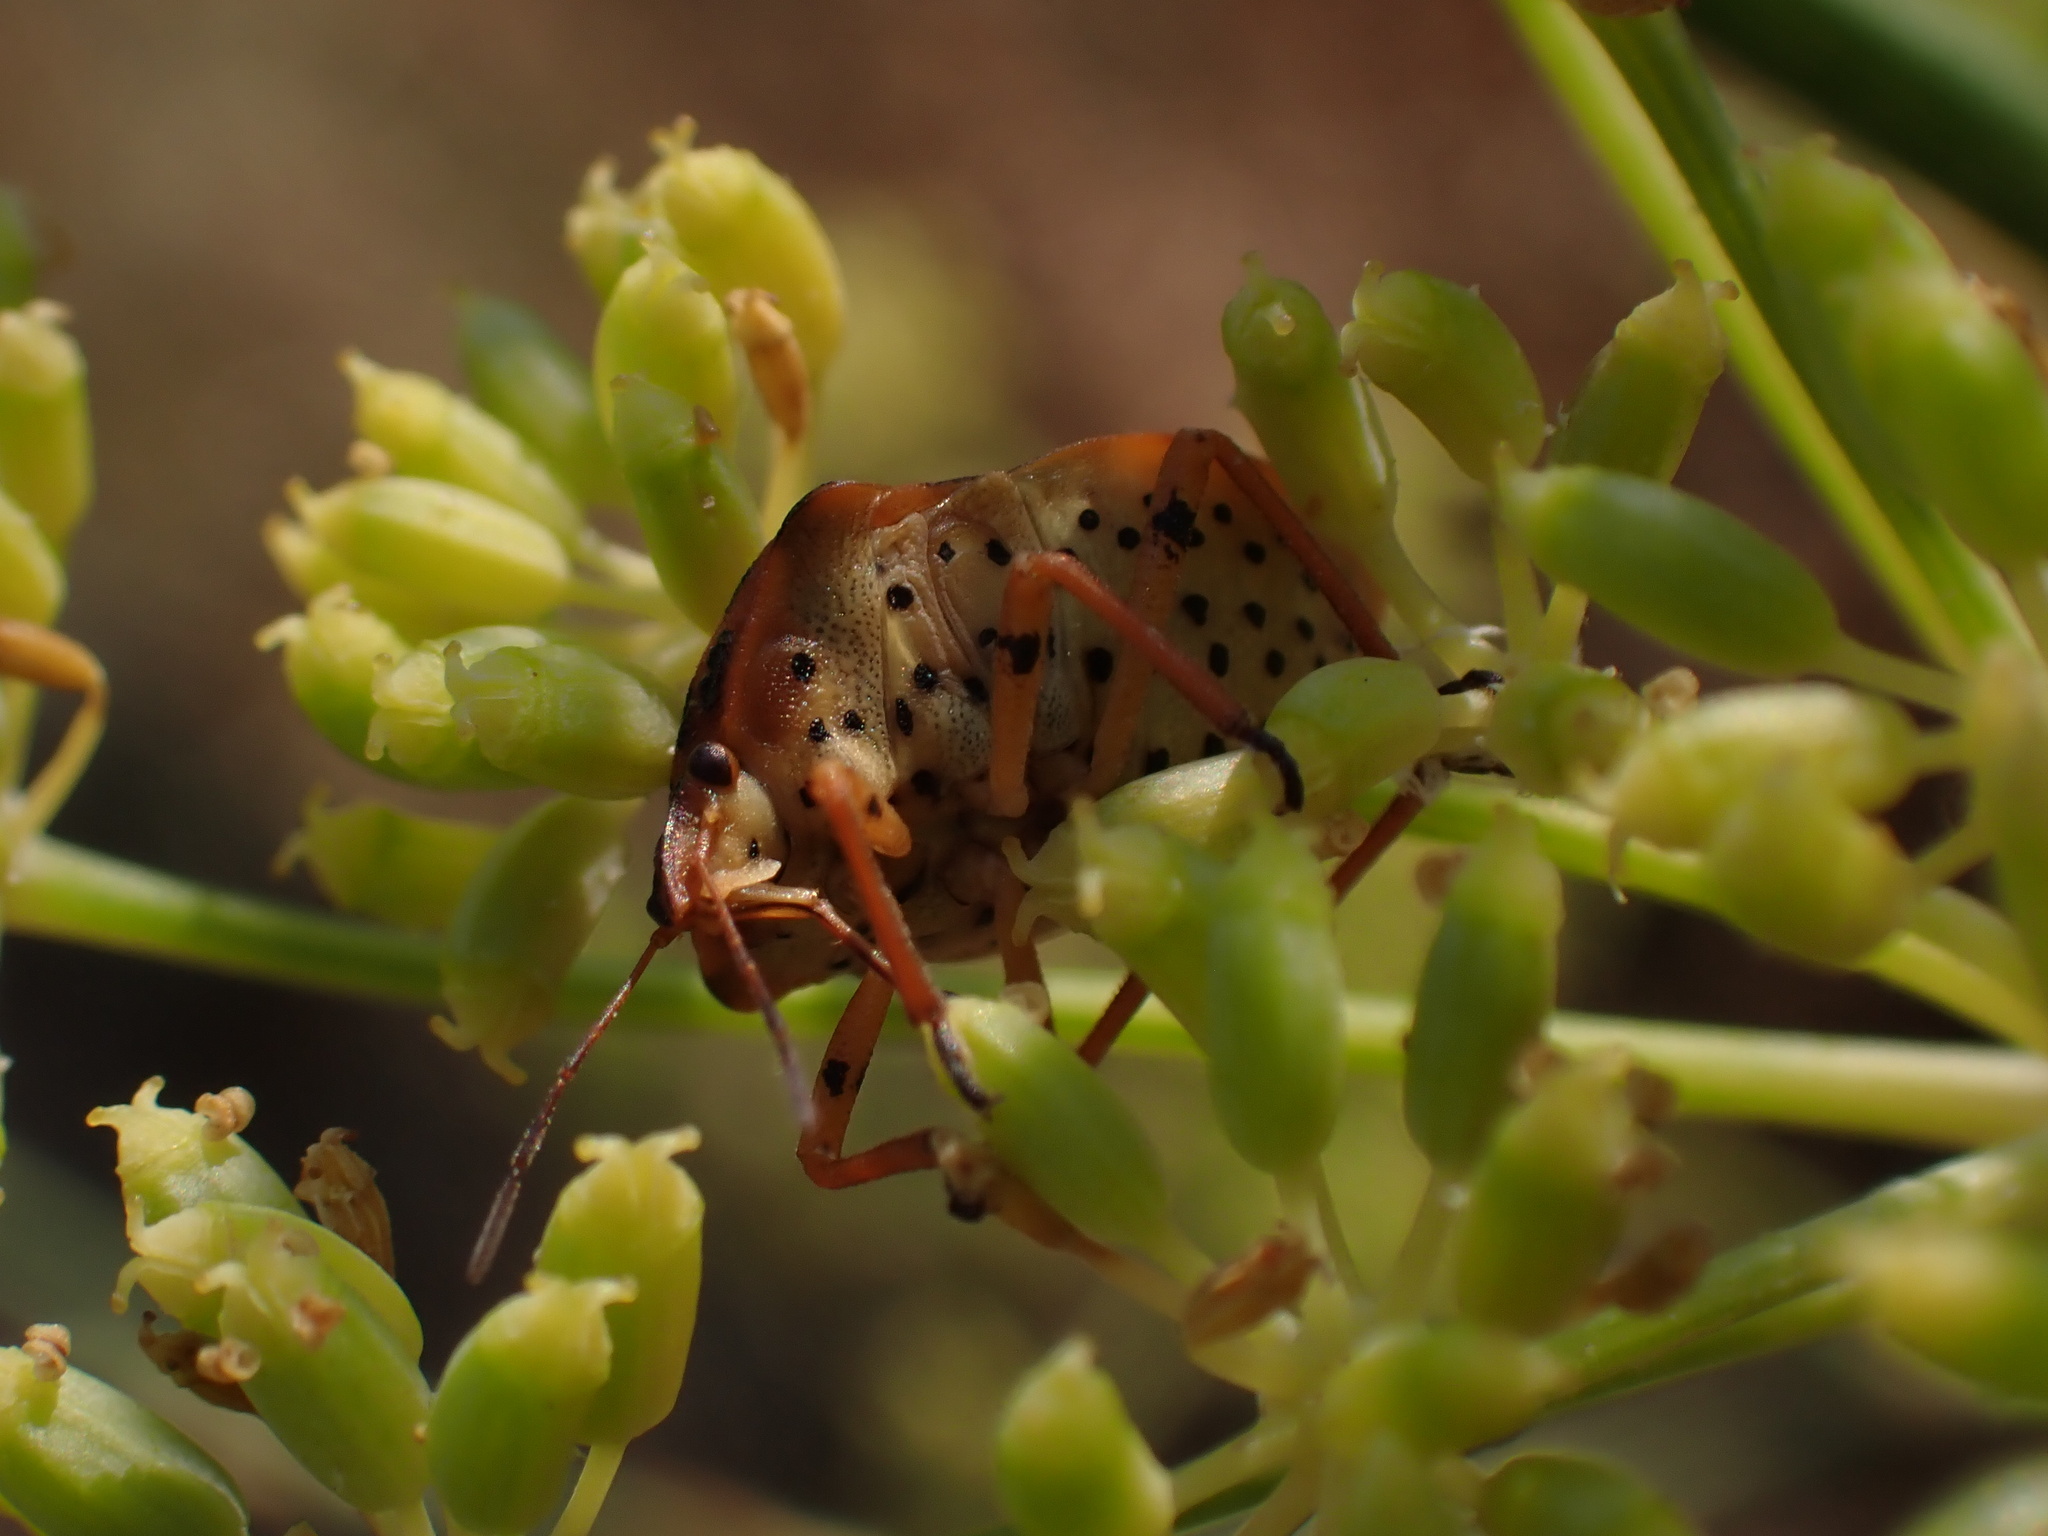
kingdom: Animalia
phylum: Arthropoda
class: Insecta
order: Hemiptera
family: Pentatomidae
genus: Graphosoma
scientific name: Graphosoma semipunctatum
